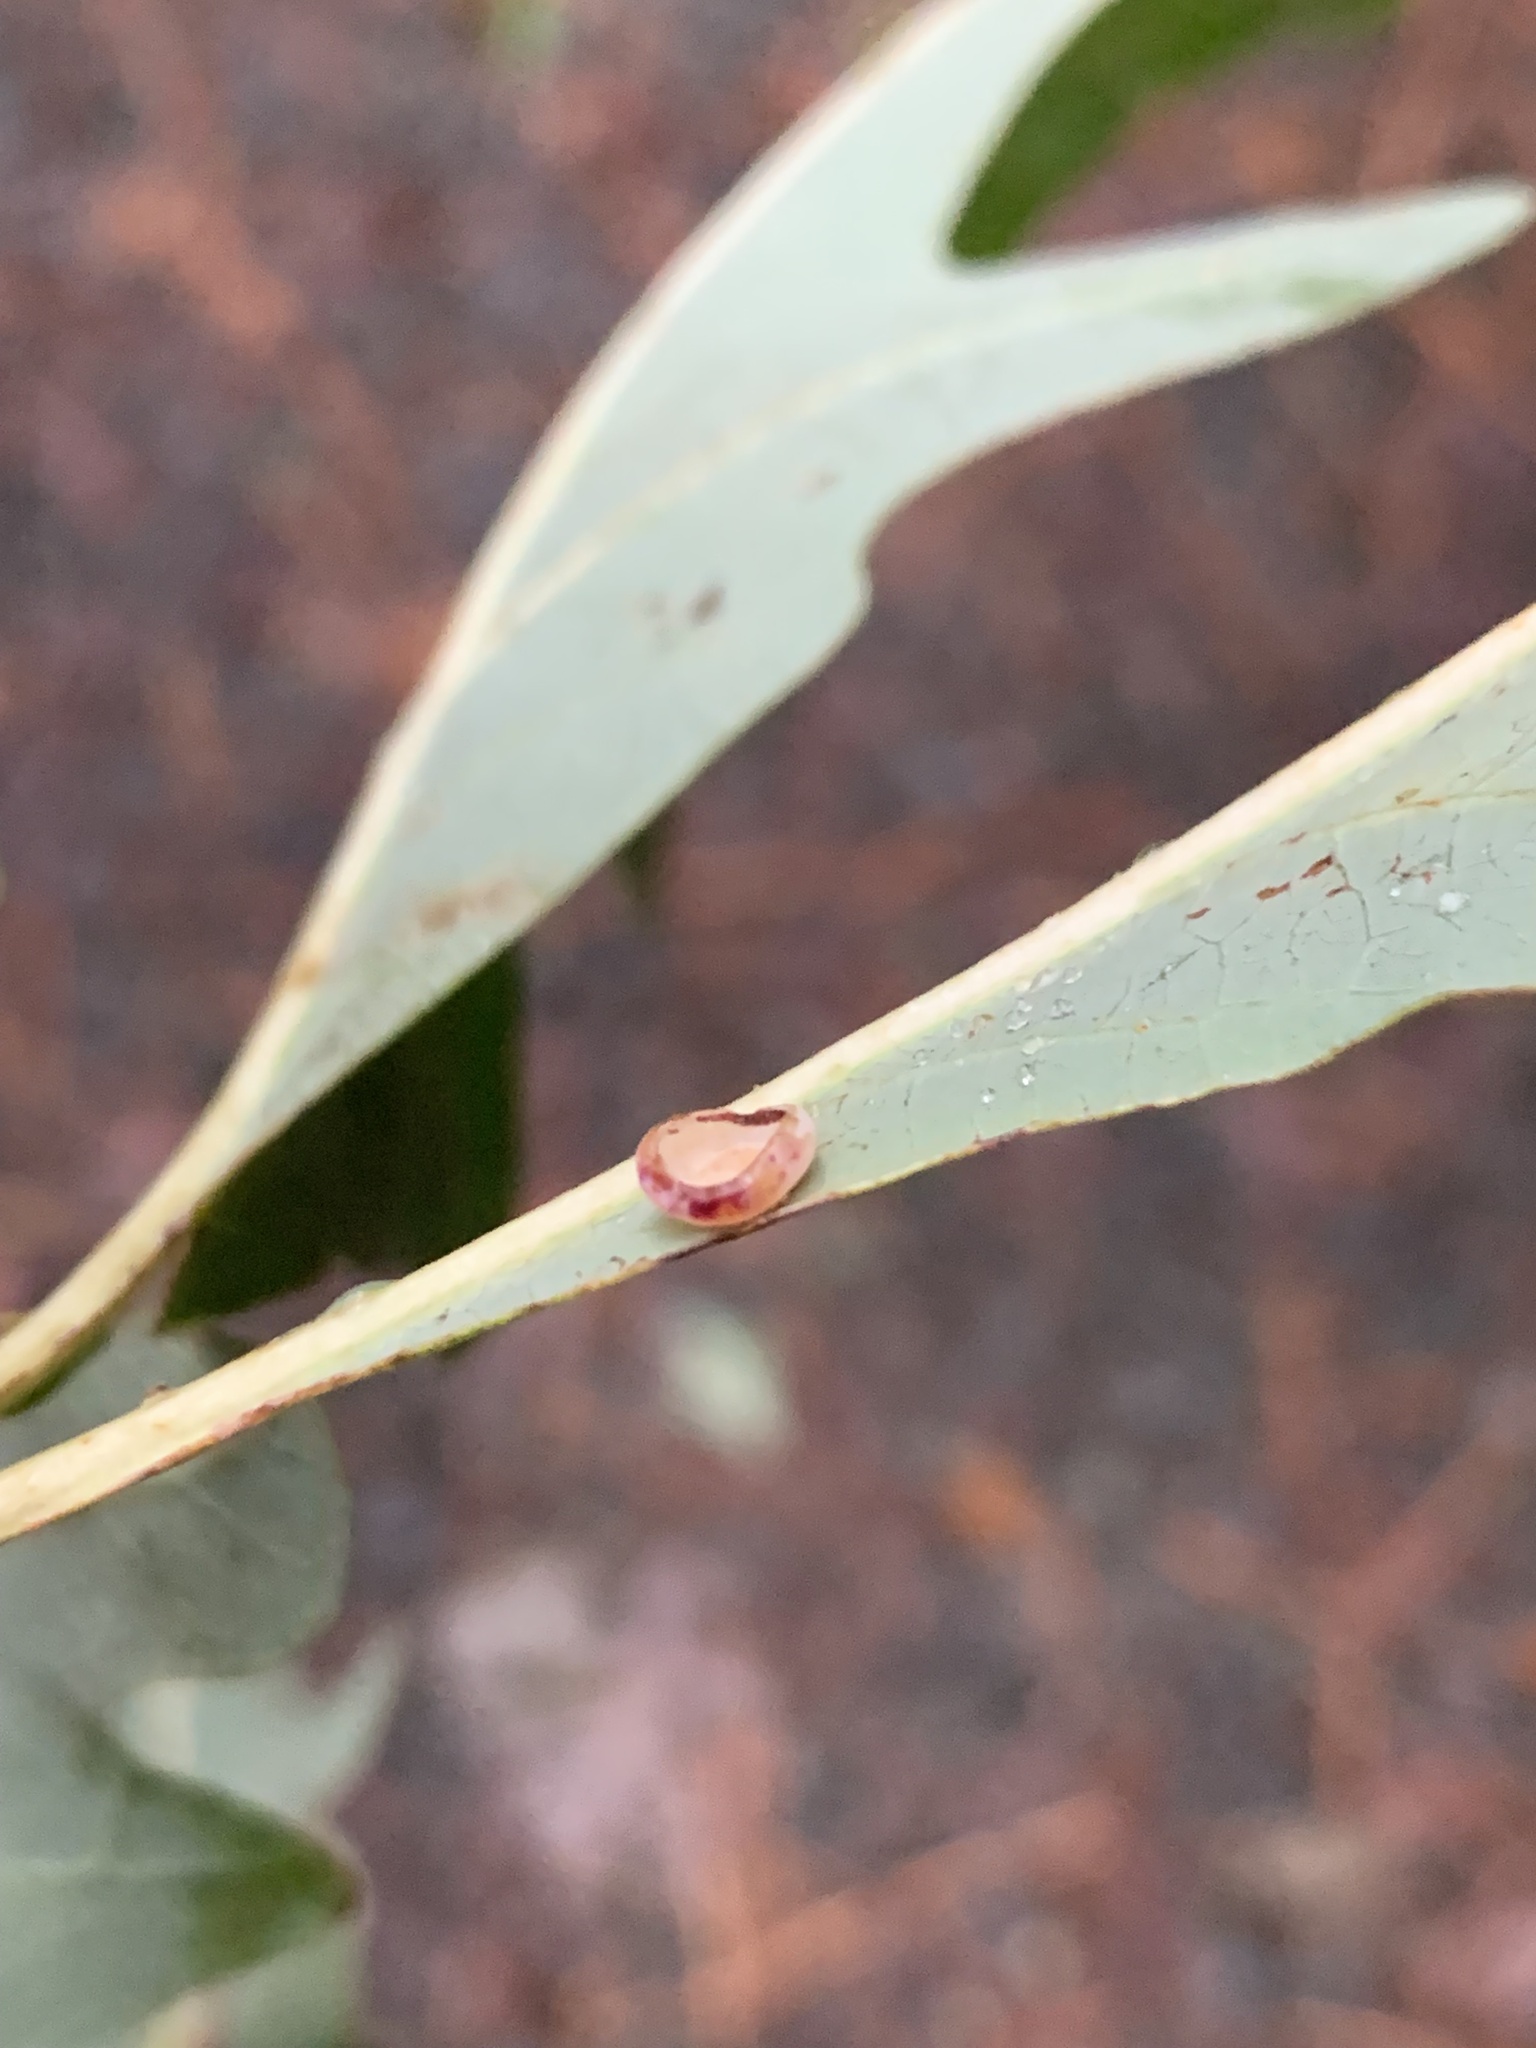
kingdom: Animalia
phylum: Arthropoda
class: Insecta
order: Hymenoptera
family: Cynipidae
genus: Phylloteras
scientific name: Phylloteras poculum
